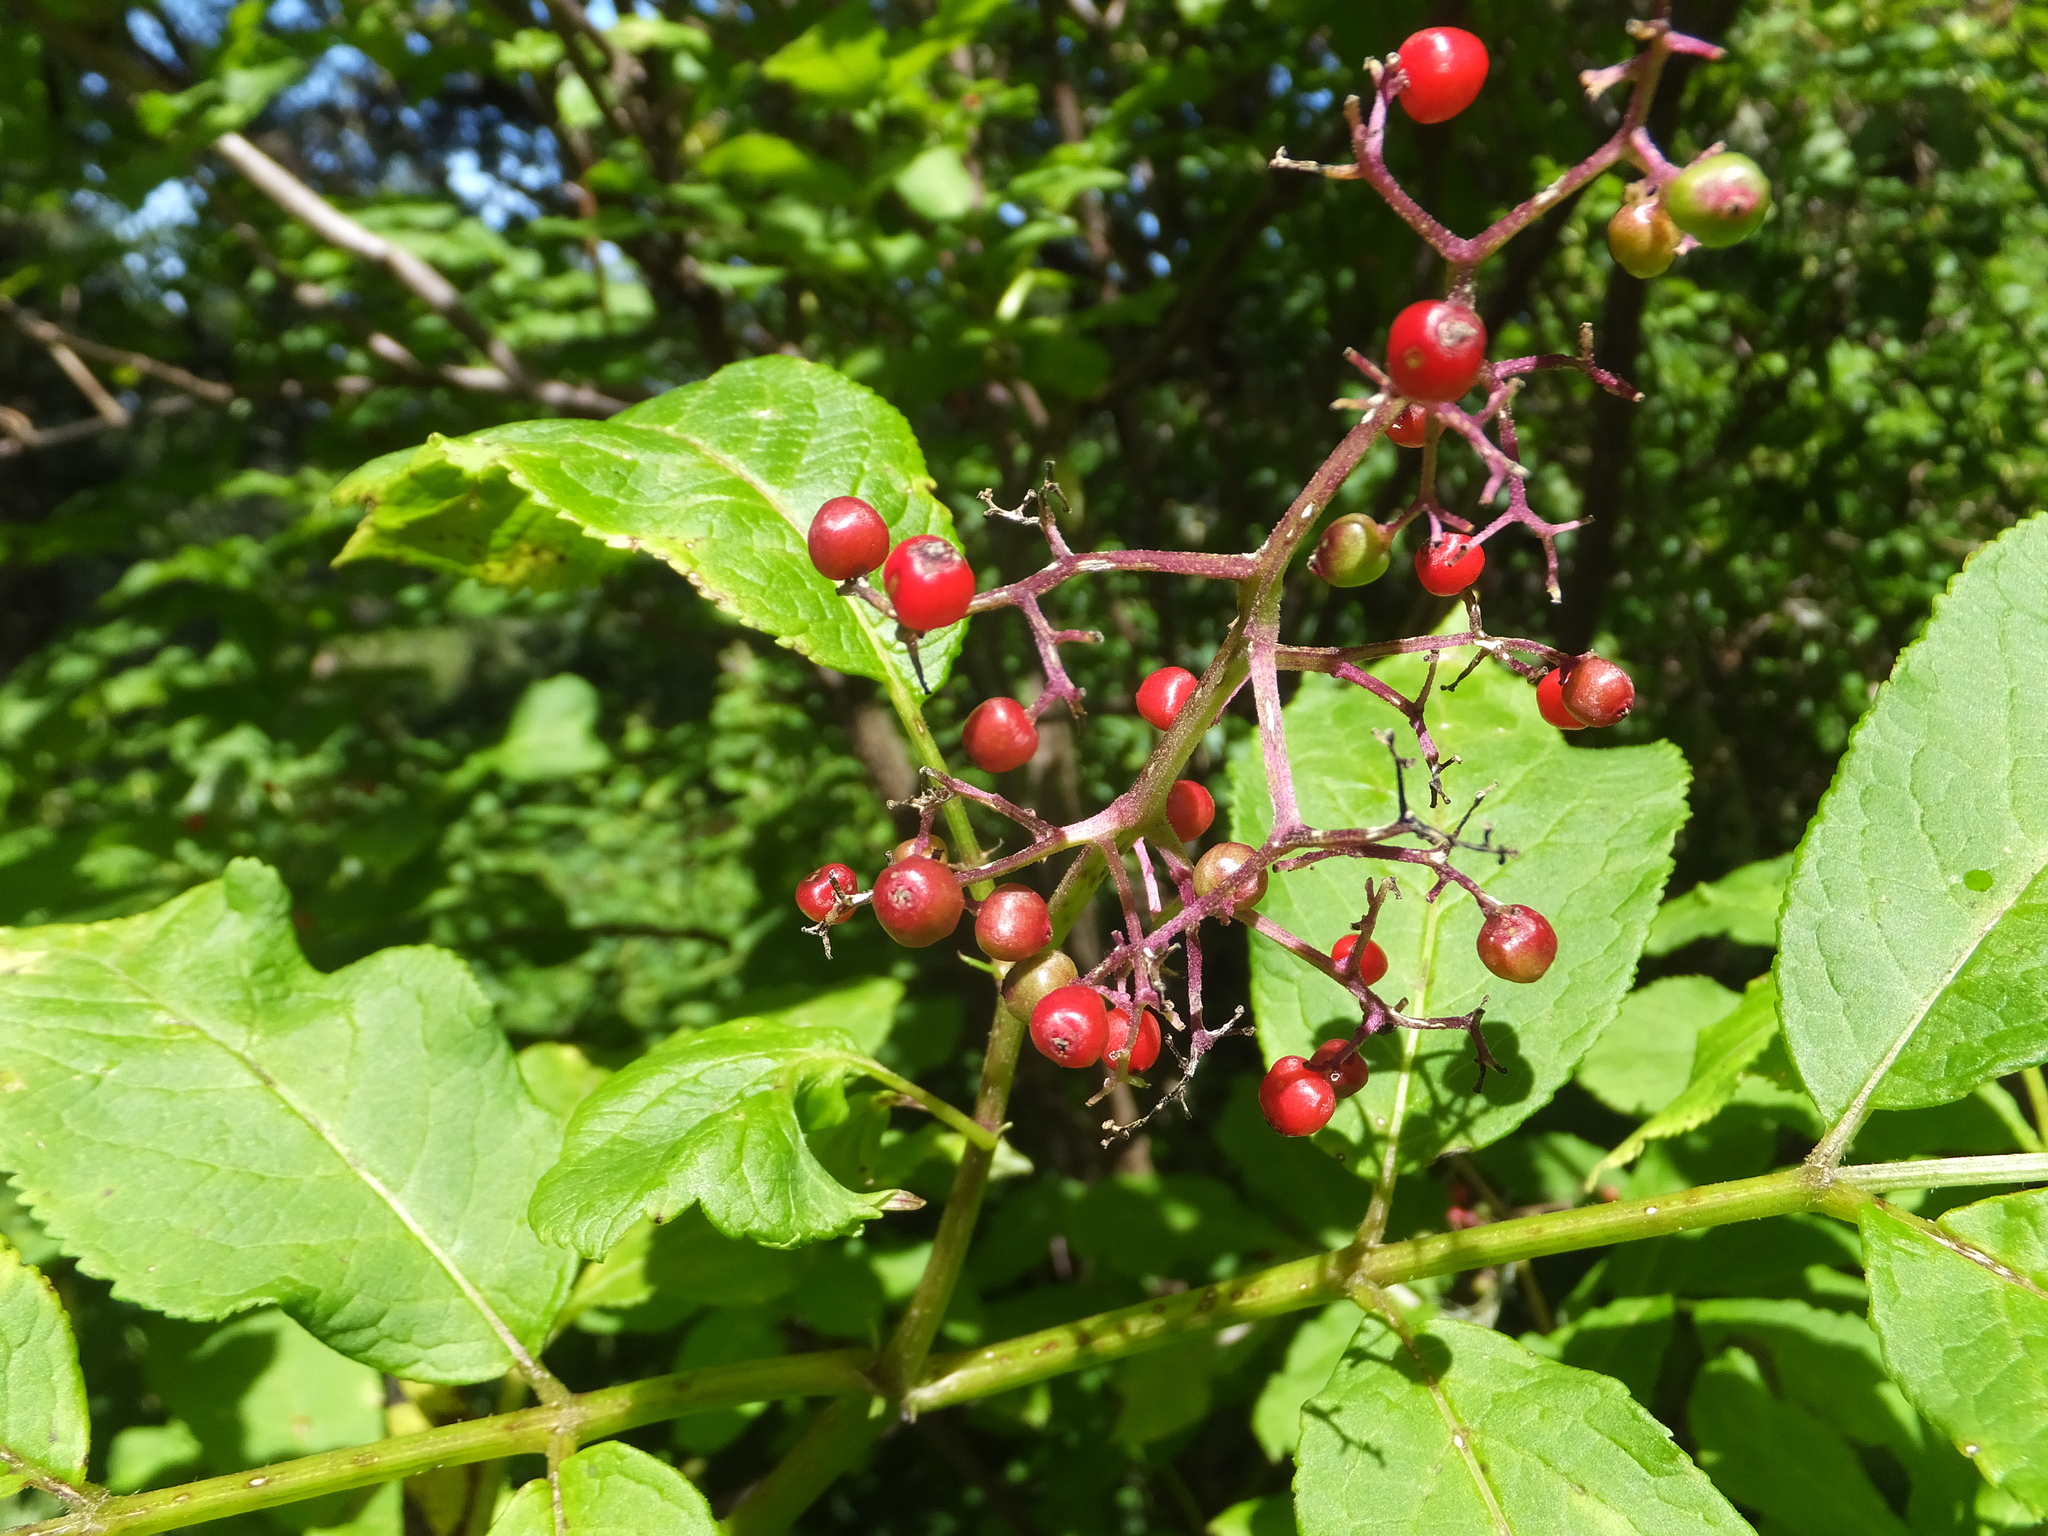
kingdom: Plantae
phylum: Tracheophyta
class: Magnoliopsida
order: Dipsacales
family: Viburnaceae
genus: Sambucus
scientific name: Sambucus racemosa
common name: Red-berried elder
